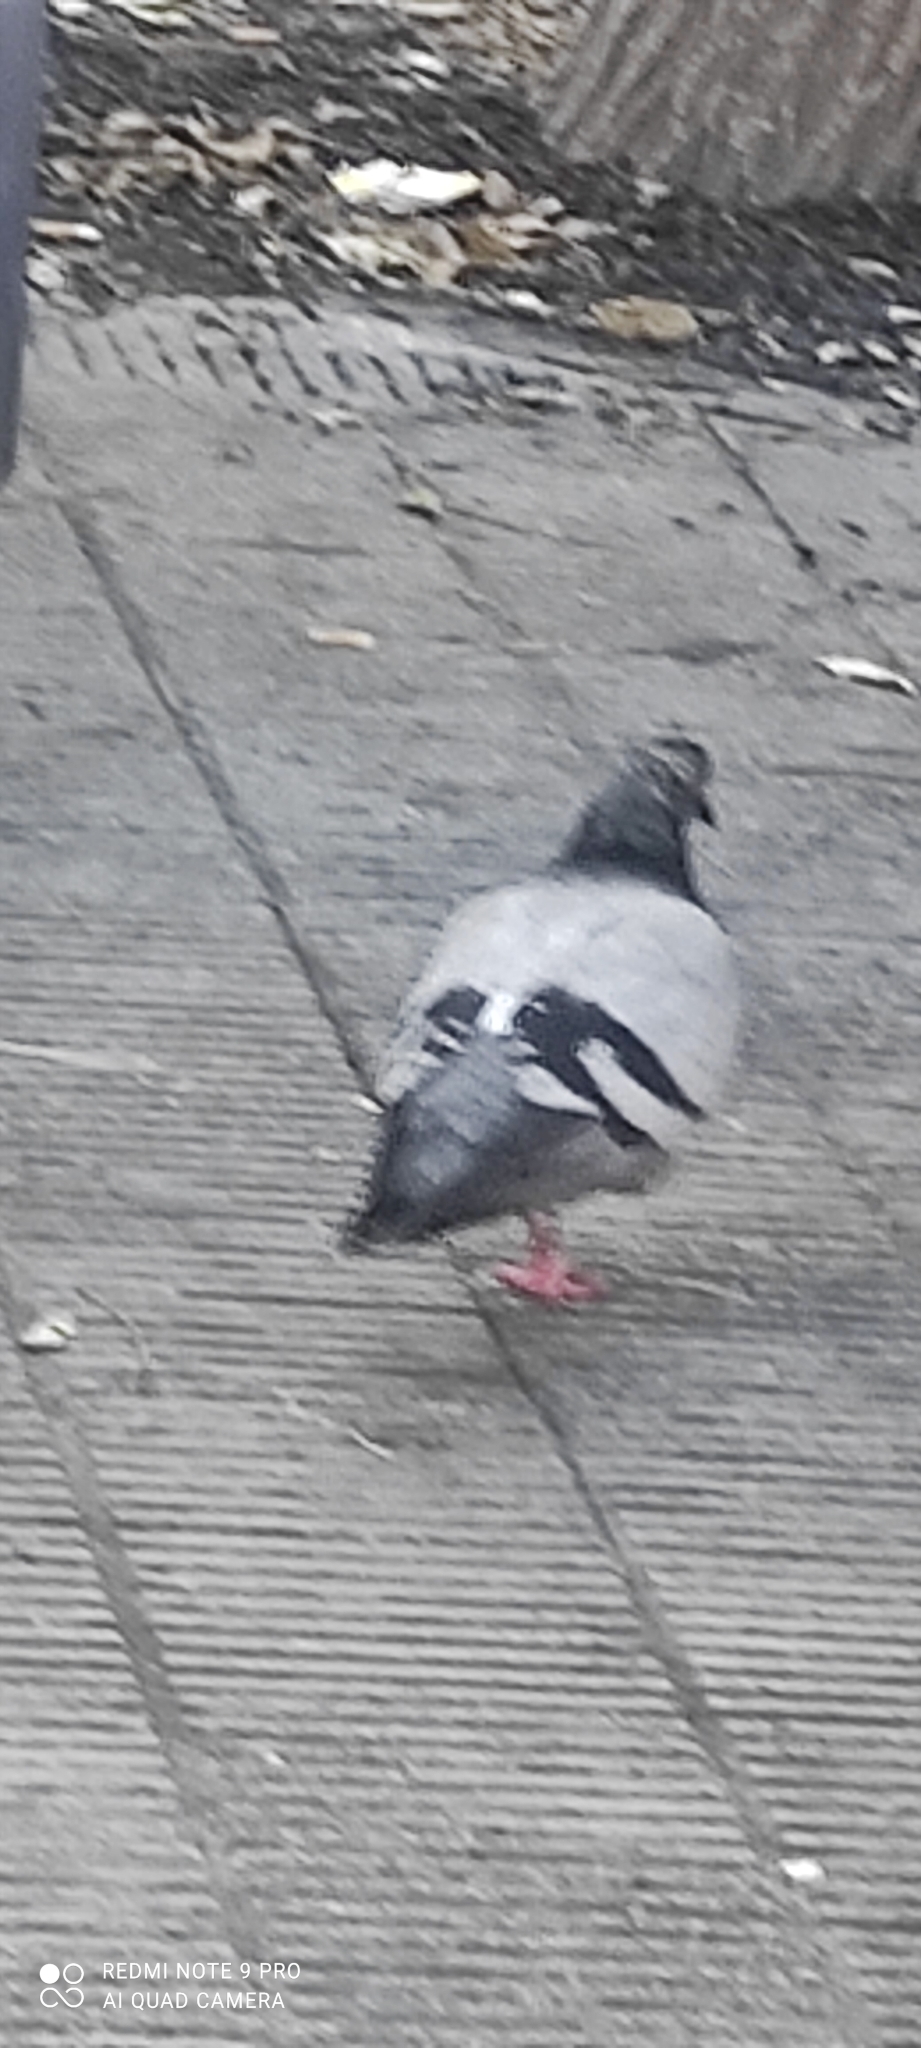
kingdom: Animalia
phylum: Chordata
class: Aves
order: Columbiformes
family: Columbidae
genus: Columba
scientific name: Columba livia
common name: Rock pigeon
